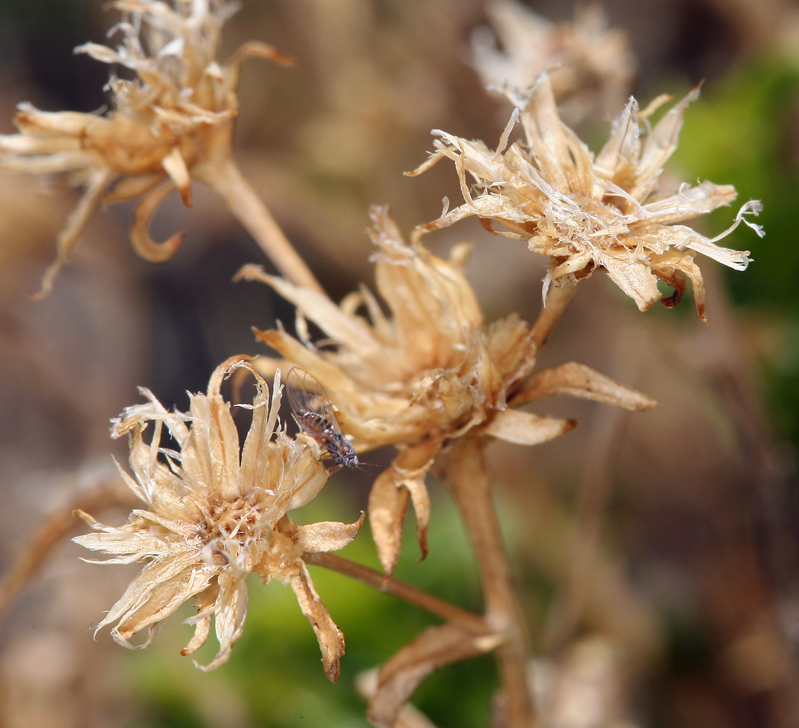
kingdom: Plantae
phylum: Tracheophyta
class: Magnoliopsida
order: Asterales
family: Asteraceae
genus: Ericameria
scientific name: Ericameria gilmanii
